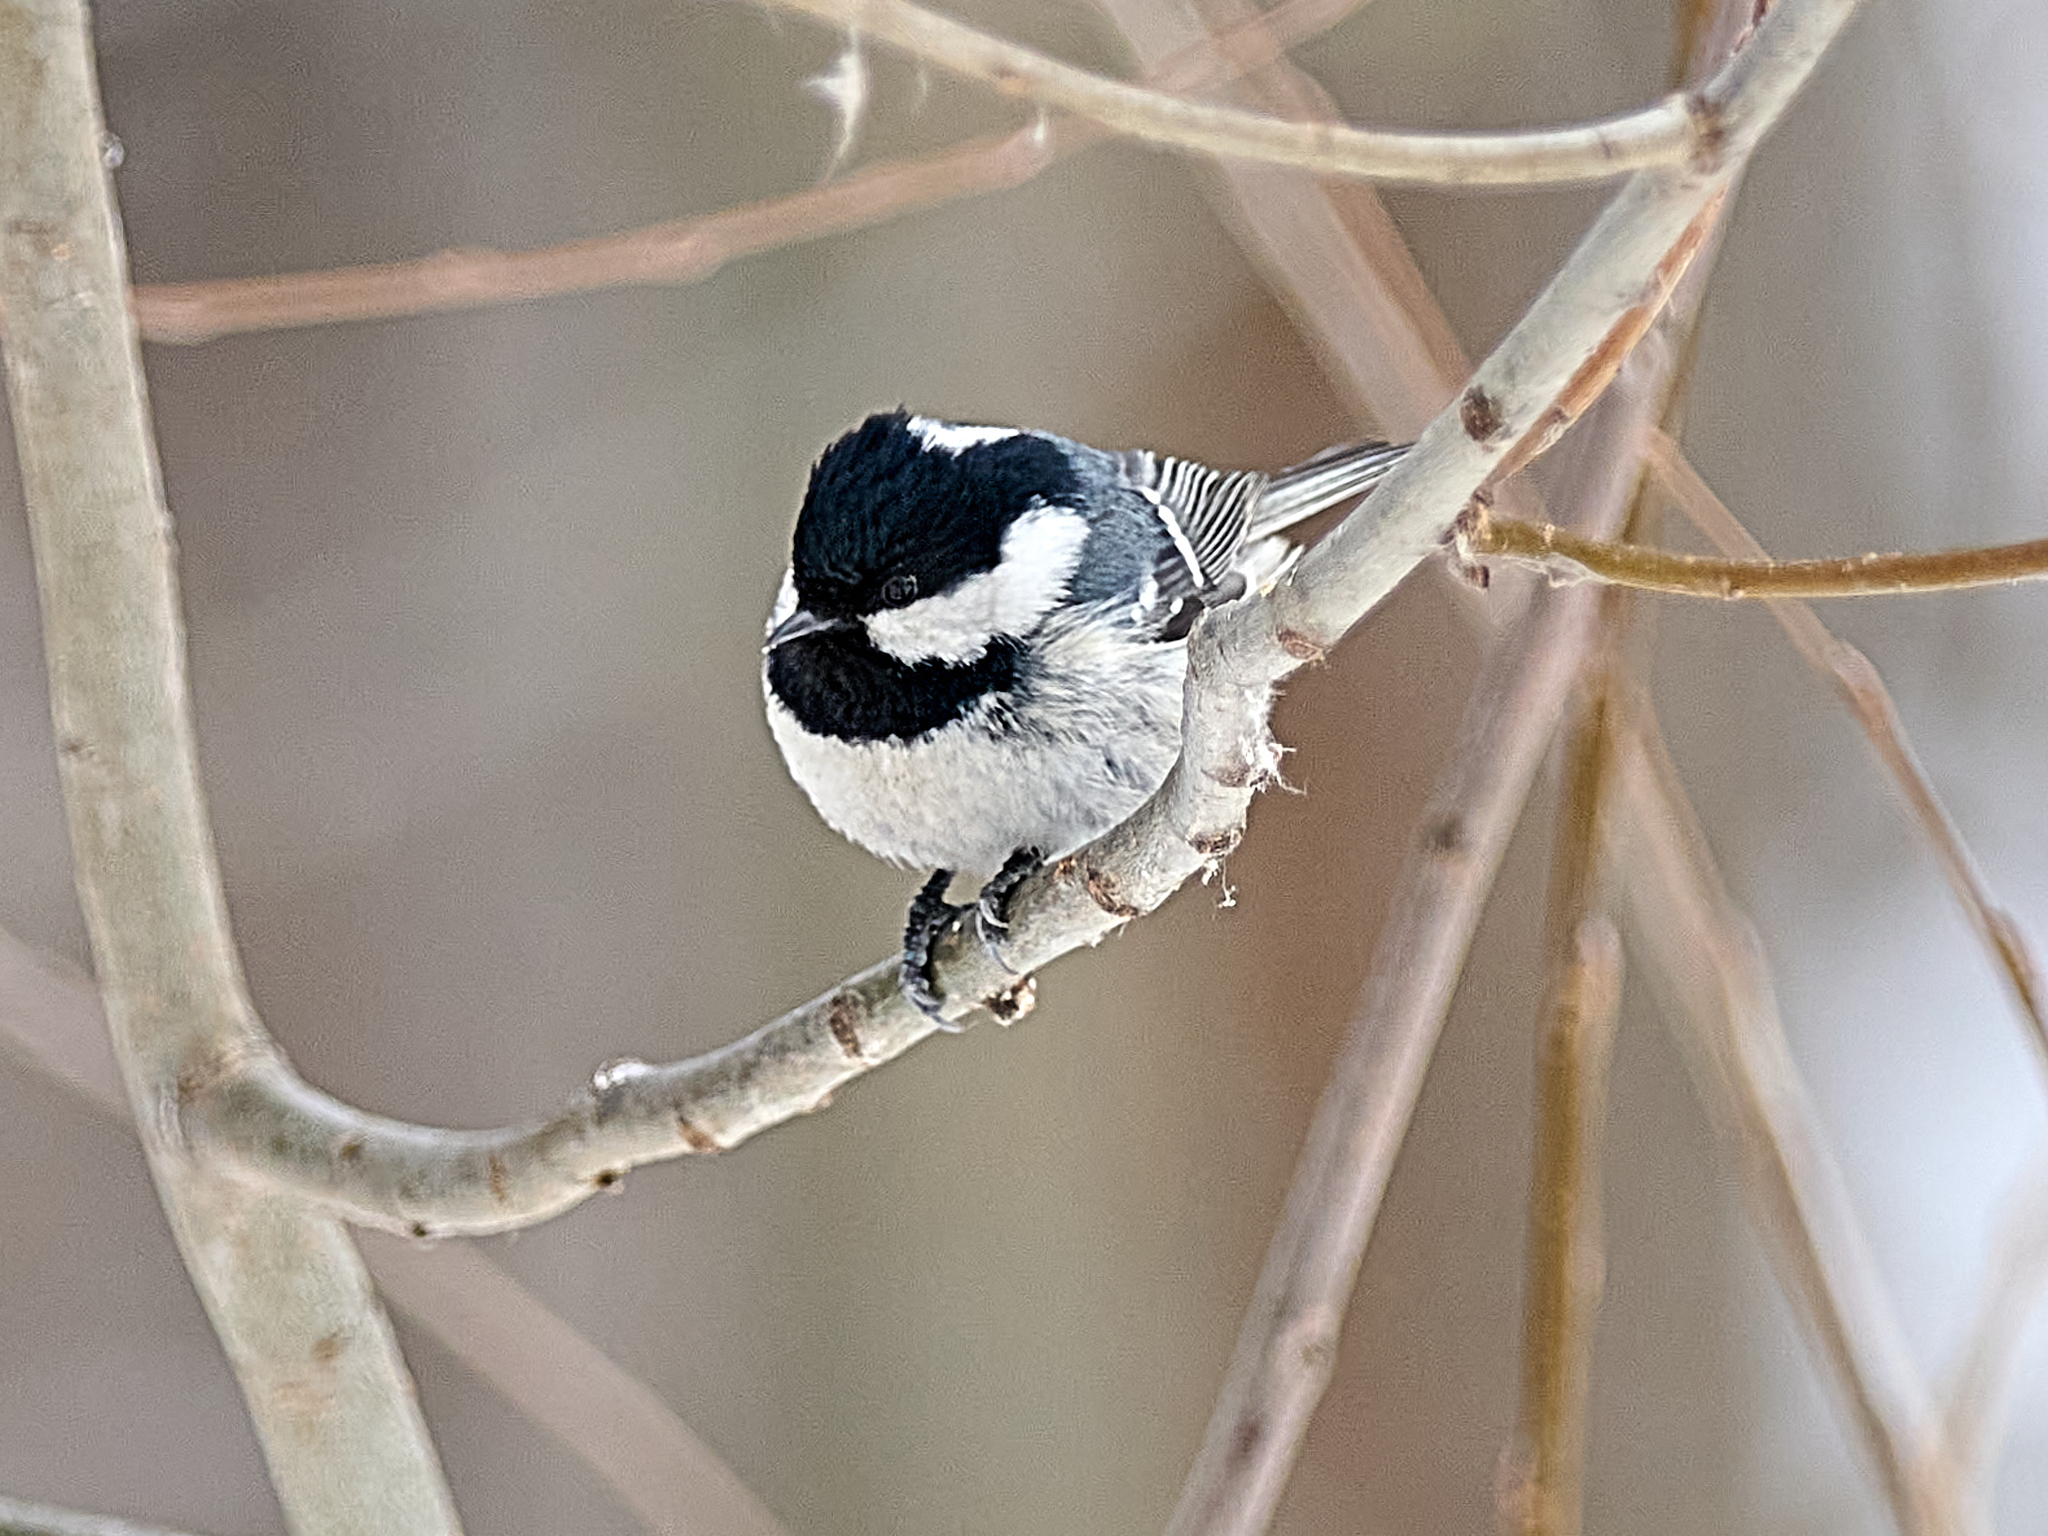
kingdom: Animalia
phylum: Chordata
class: Aves
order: Passeriformes
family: Paridae
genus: Periparus
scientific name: Periparus ater
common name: Coal tit
